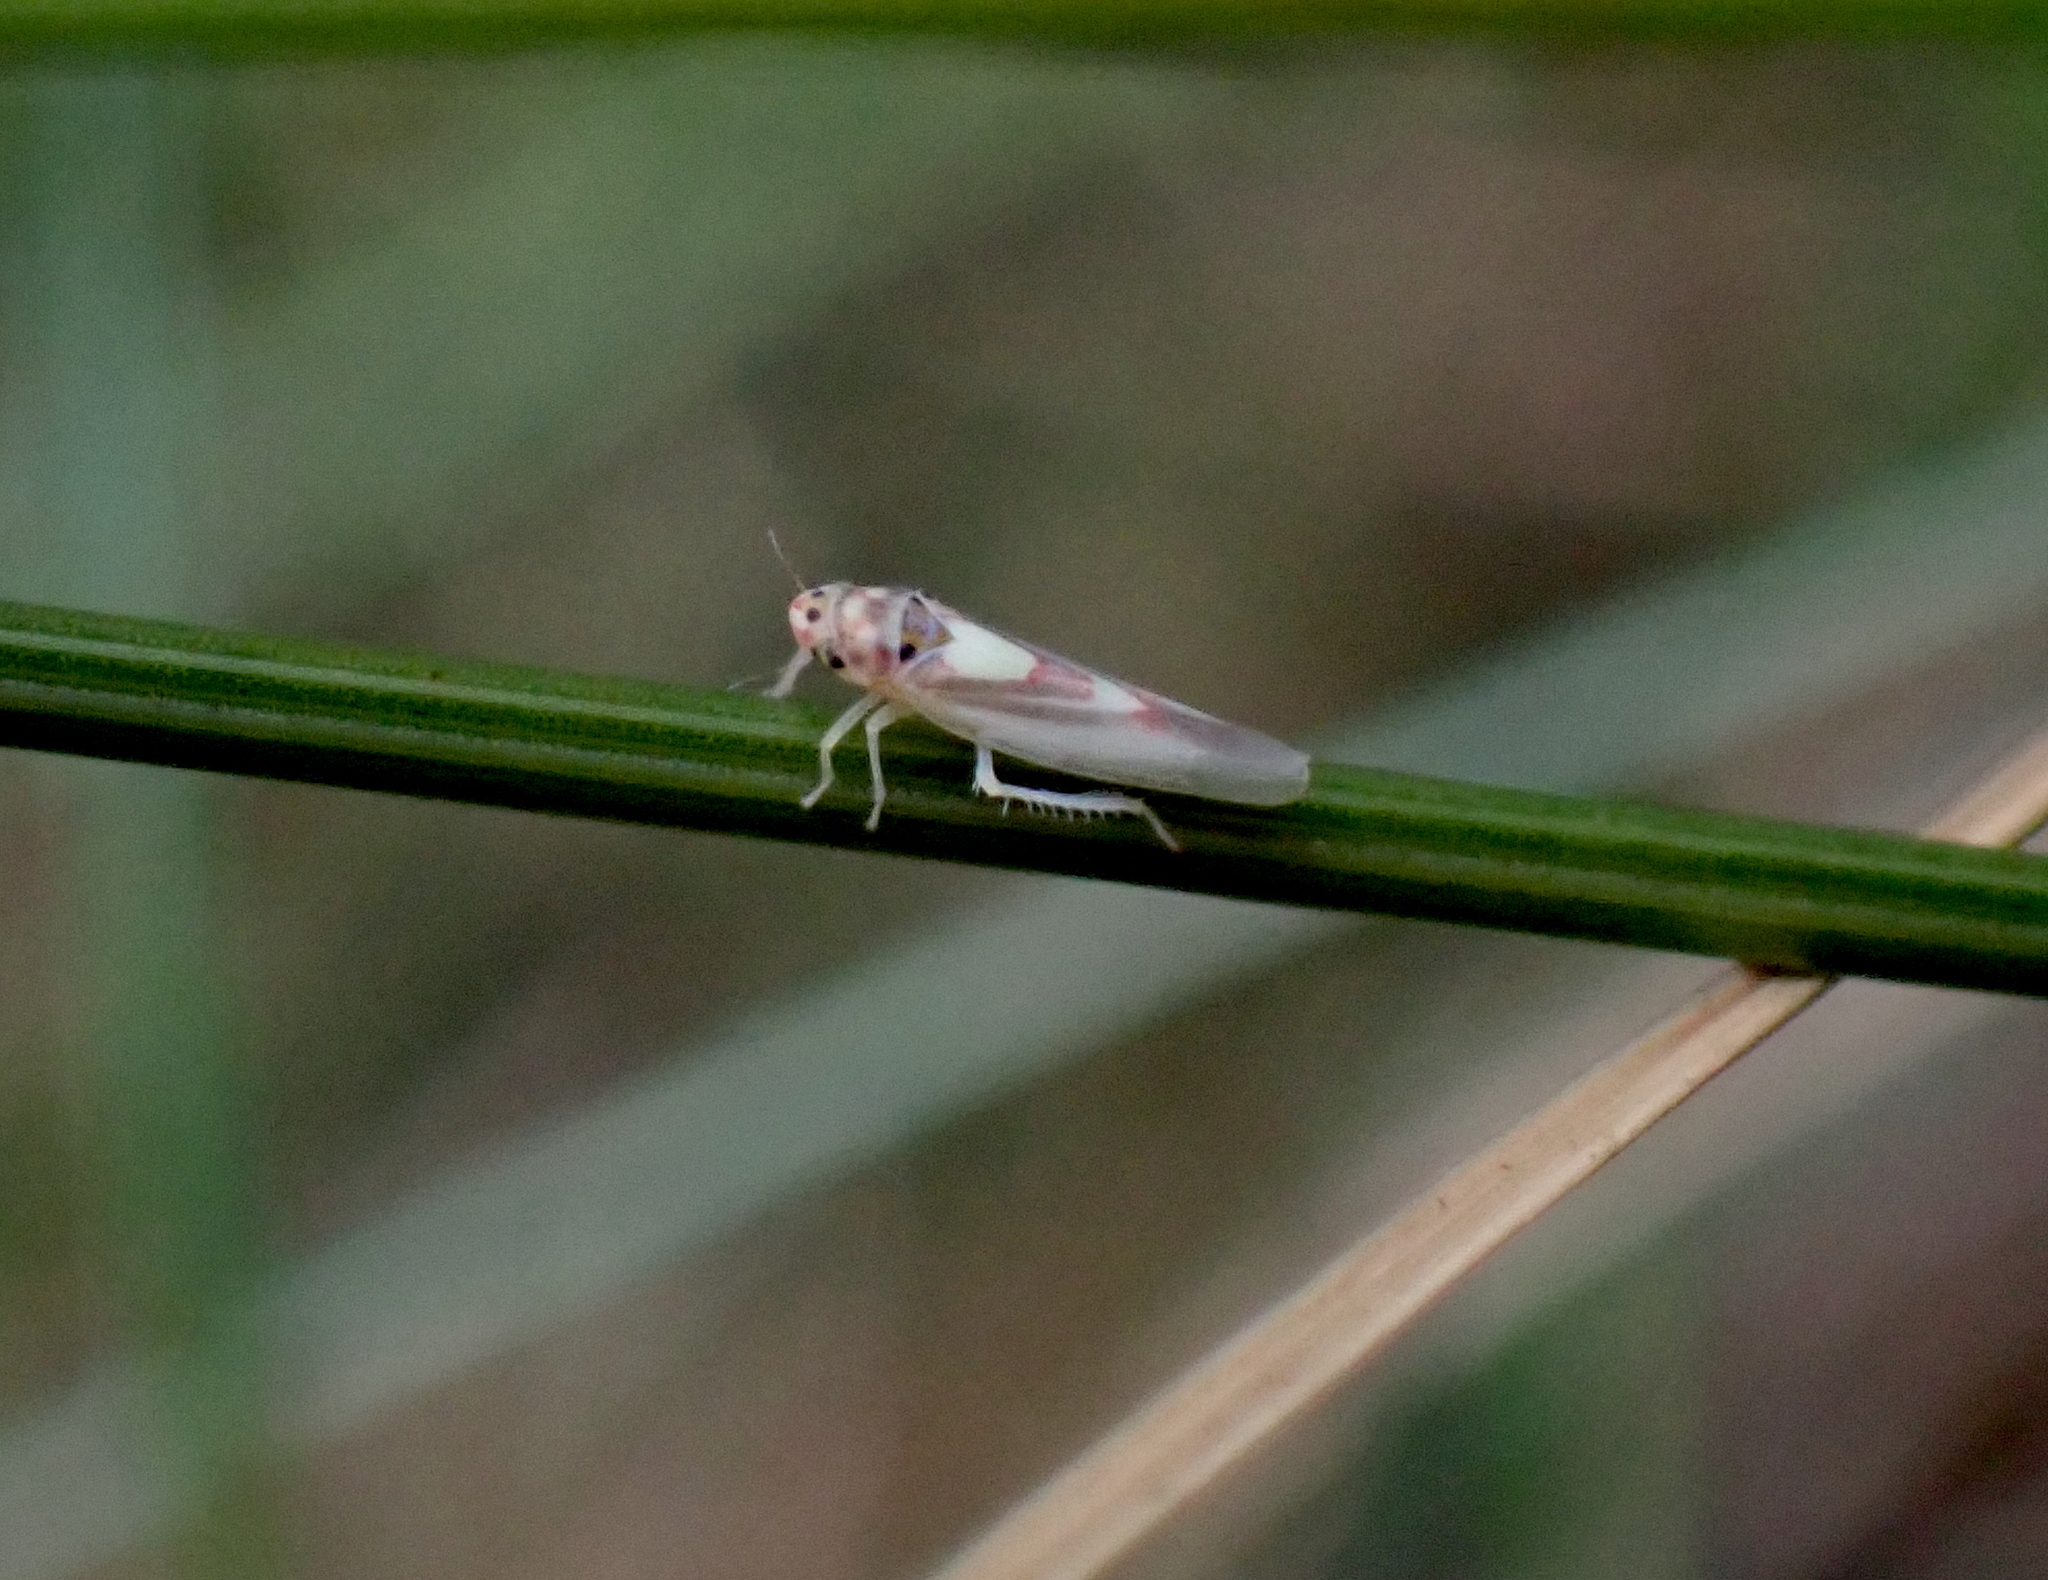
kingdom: Animalia
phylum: Arthropoda
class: Insecta
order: Hemiptera
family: Cicadellidae
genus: Zygina
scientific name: Zygina lunaris
